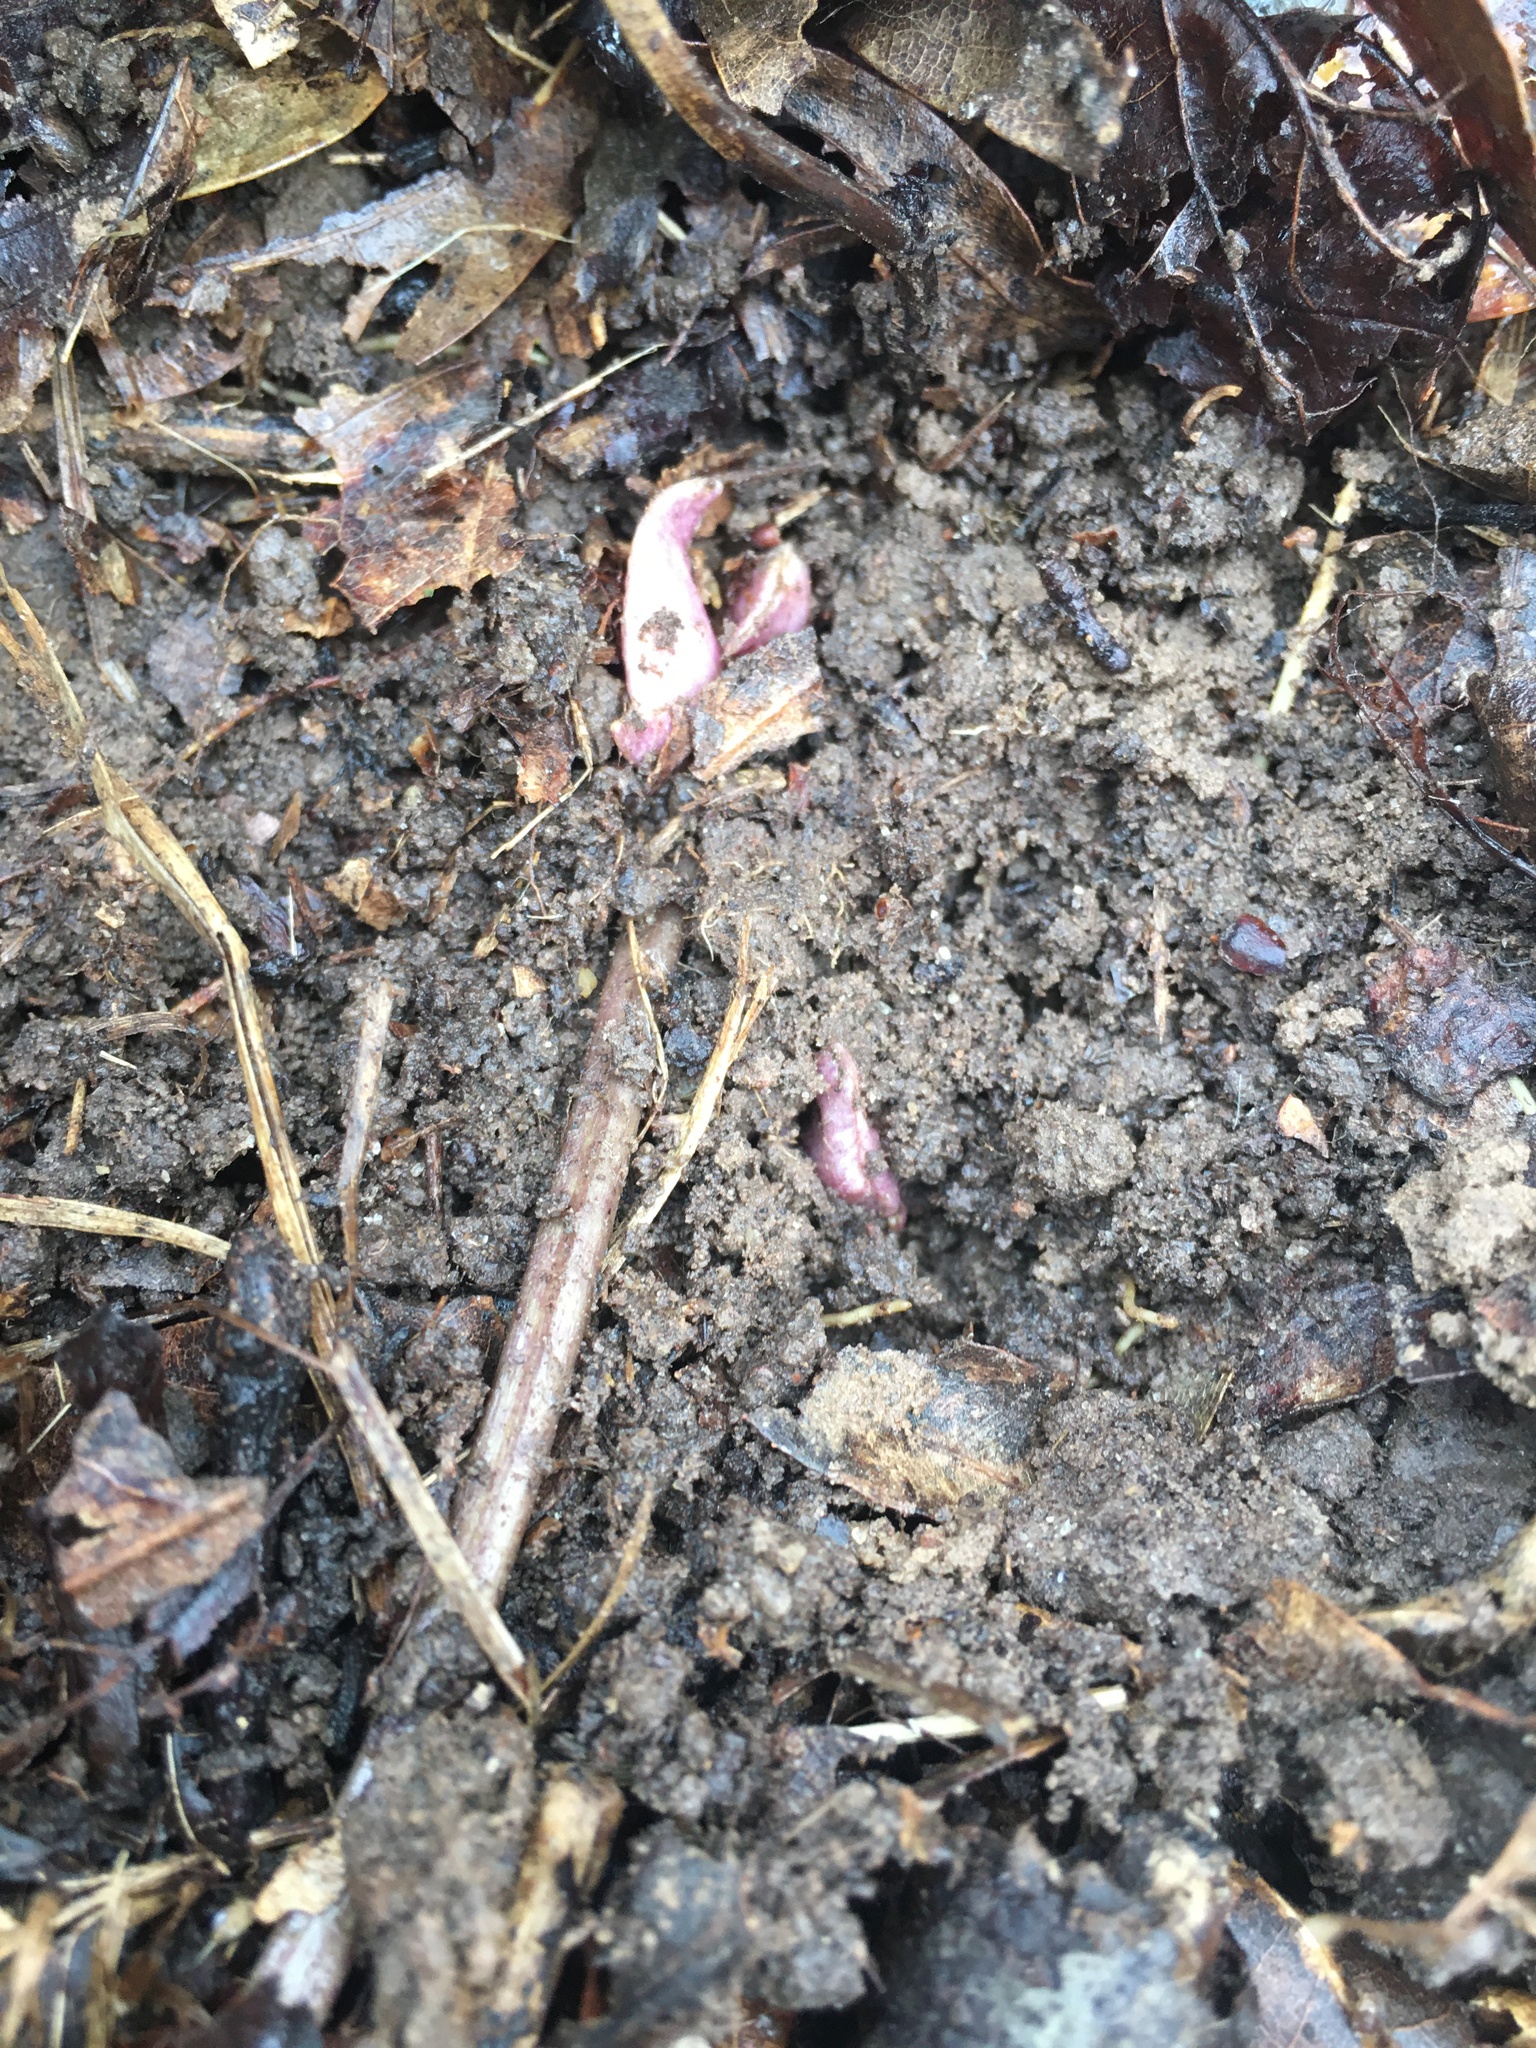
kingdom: Plantae
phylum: Tracheophyta
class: Magnoliopsida
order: Piperales
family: Aristolochiaceae
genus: Hexastylis
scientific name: Hexastylis arifolia
